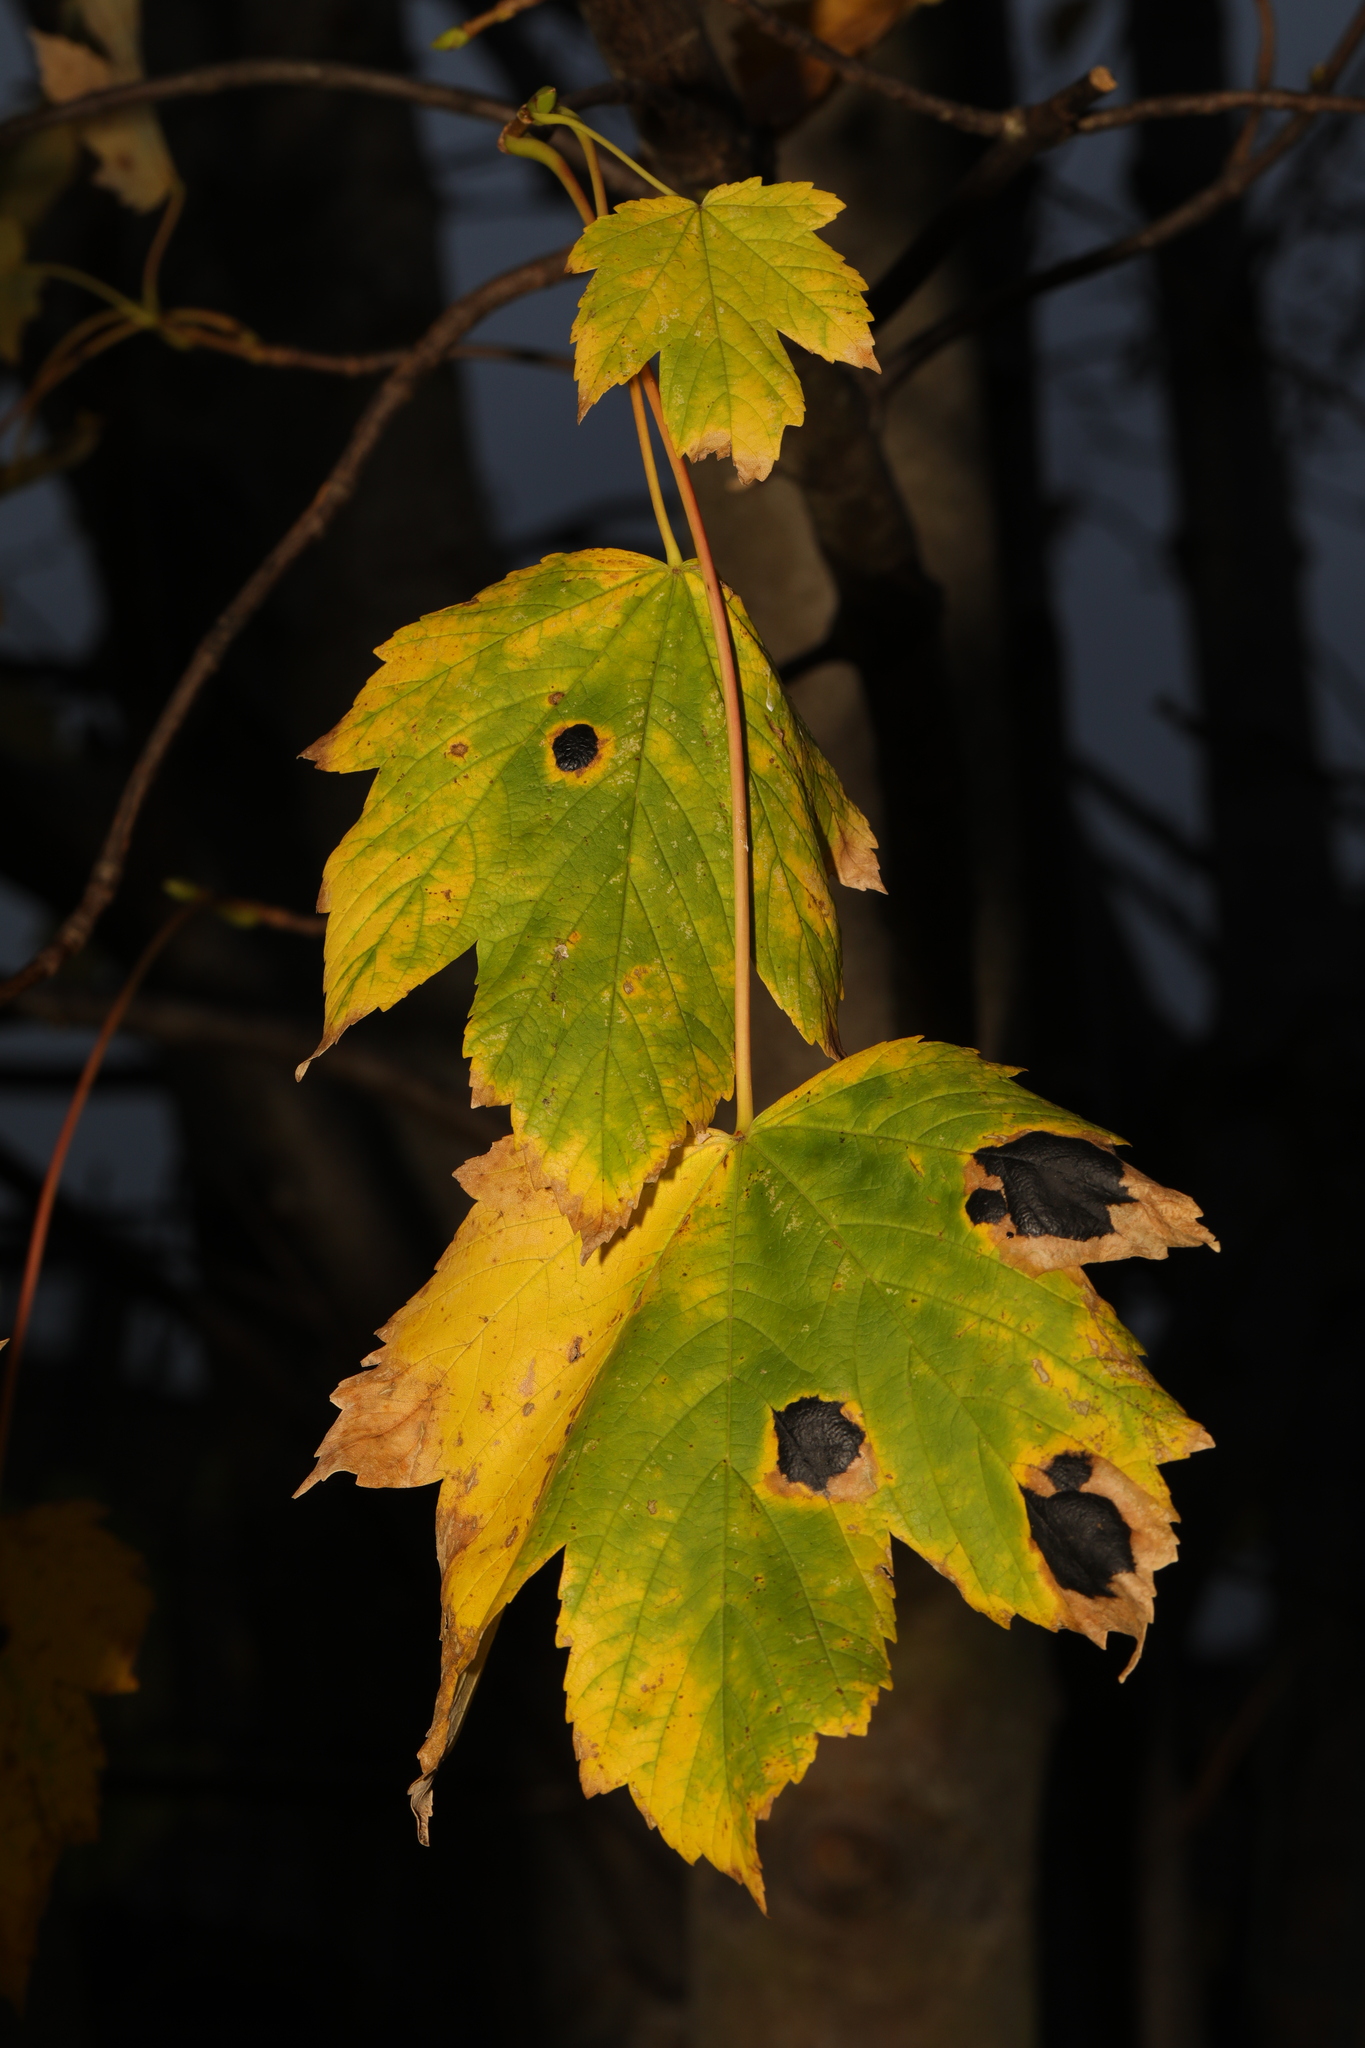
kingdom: Plantae
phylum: Tracheophyta
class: Magnoliopsida
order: Sapindales
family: Sapindaceae
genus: Acer
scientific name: Acer pseudoplatanus
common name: Sycamore
